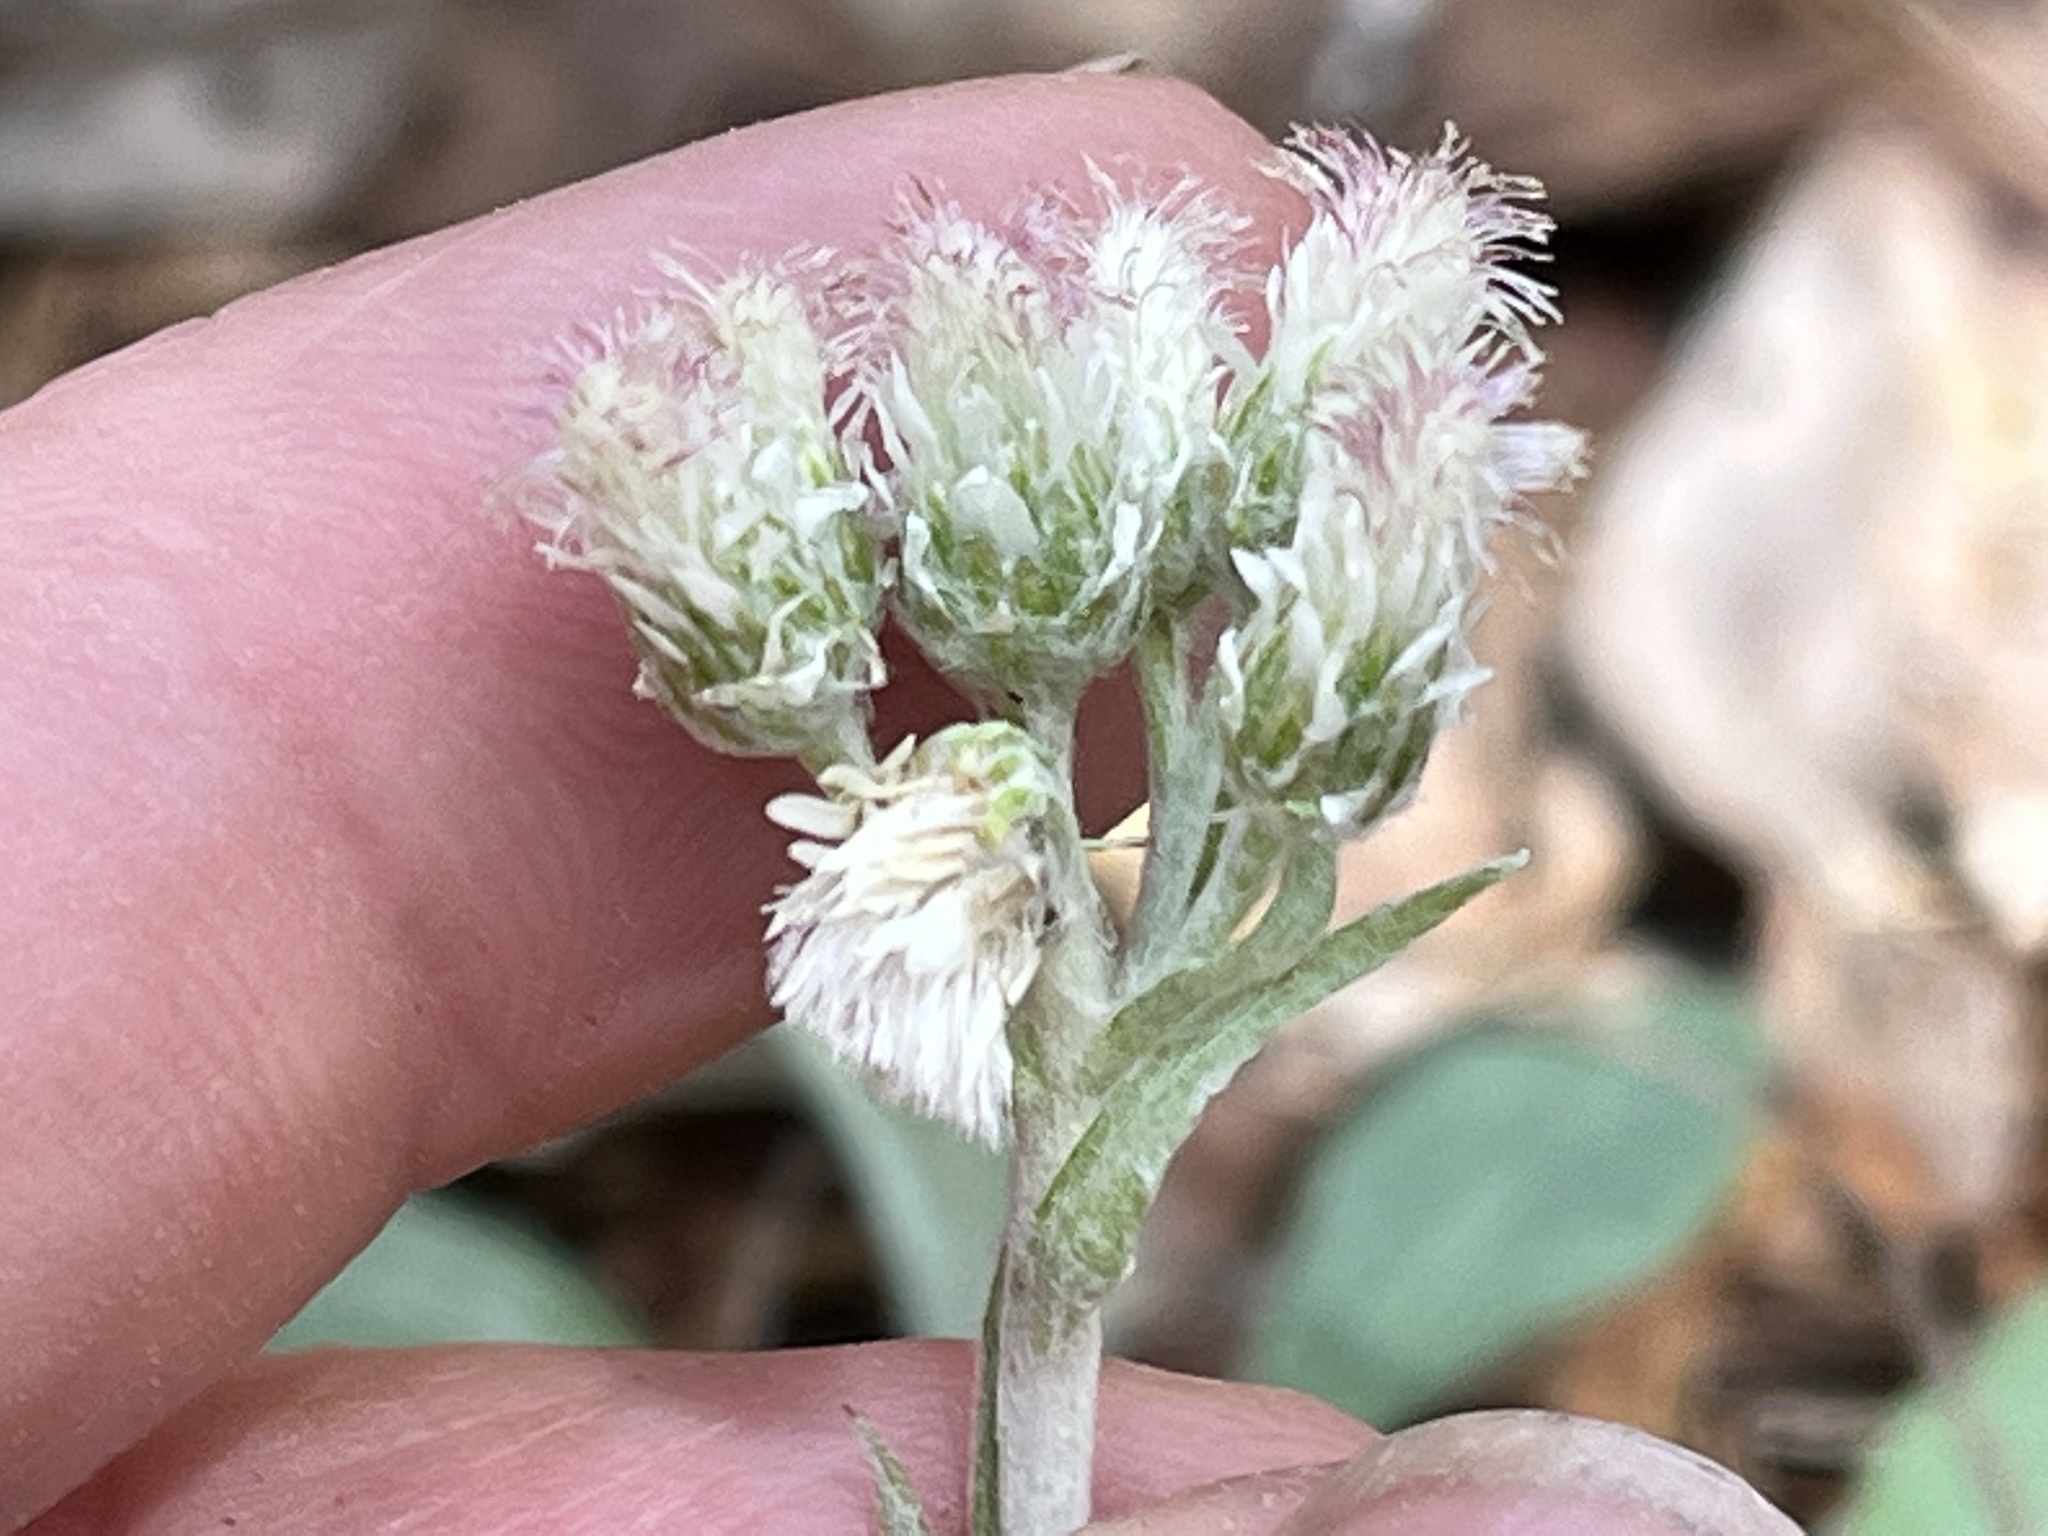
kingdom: Plantae
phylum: Tracheophyta
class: Magnoliopsida
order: Asterales
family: Asteraceae
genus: Antennaria
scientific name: Antennaria plantaginifolia
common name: Plantain-leaved pussytoes
